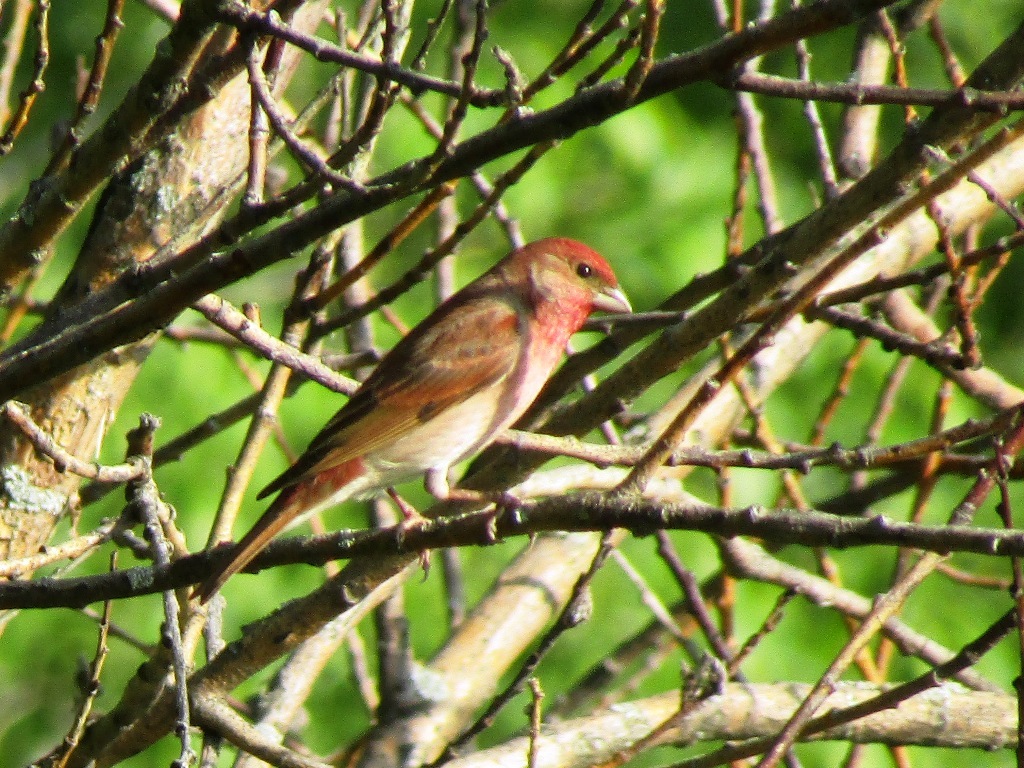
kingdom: Animalia
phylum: Chordata
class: Aves
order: Passeriformes
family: Fringillidae
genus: Carpodacus
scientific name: Carpodacus erythrinus
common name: Common rosefinch
